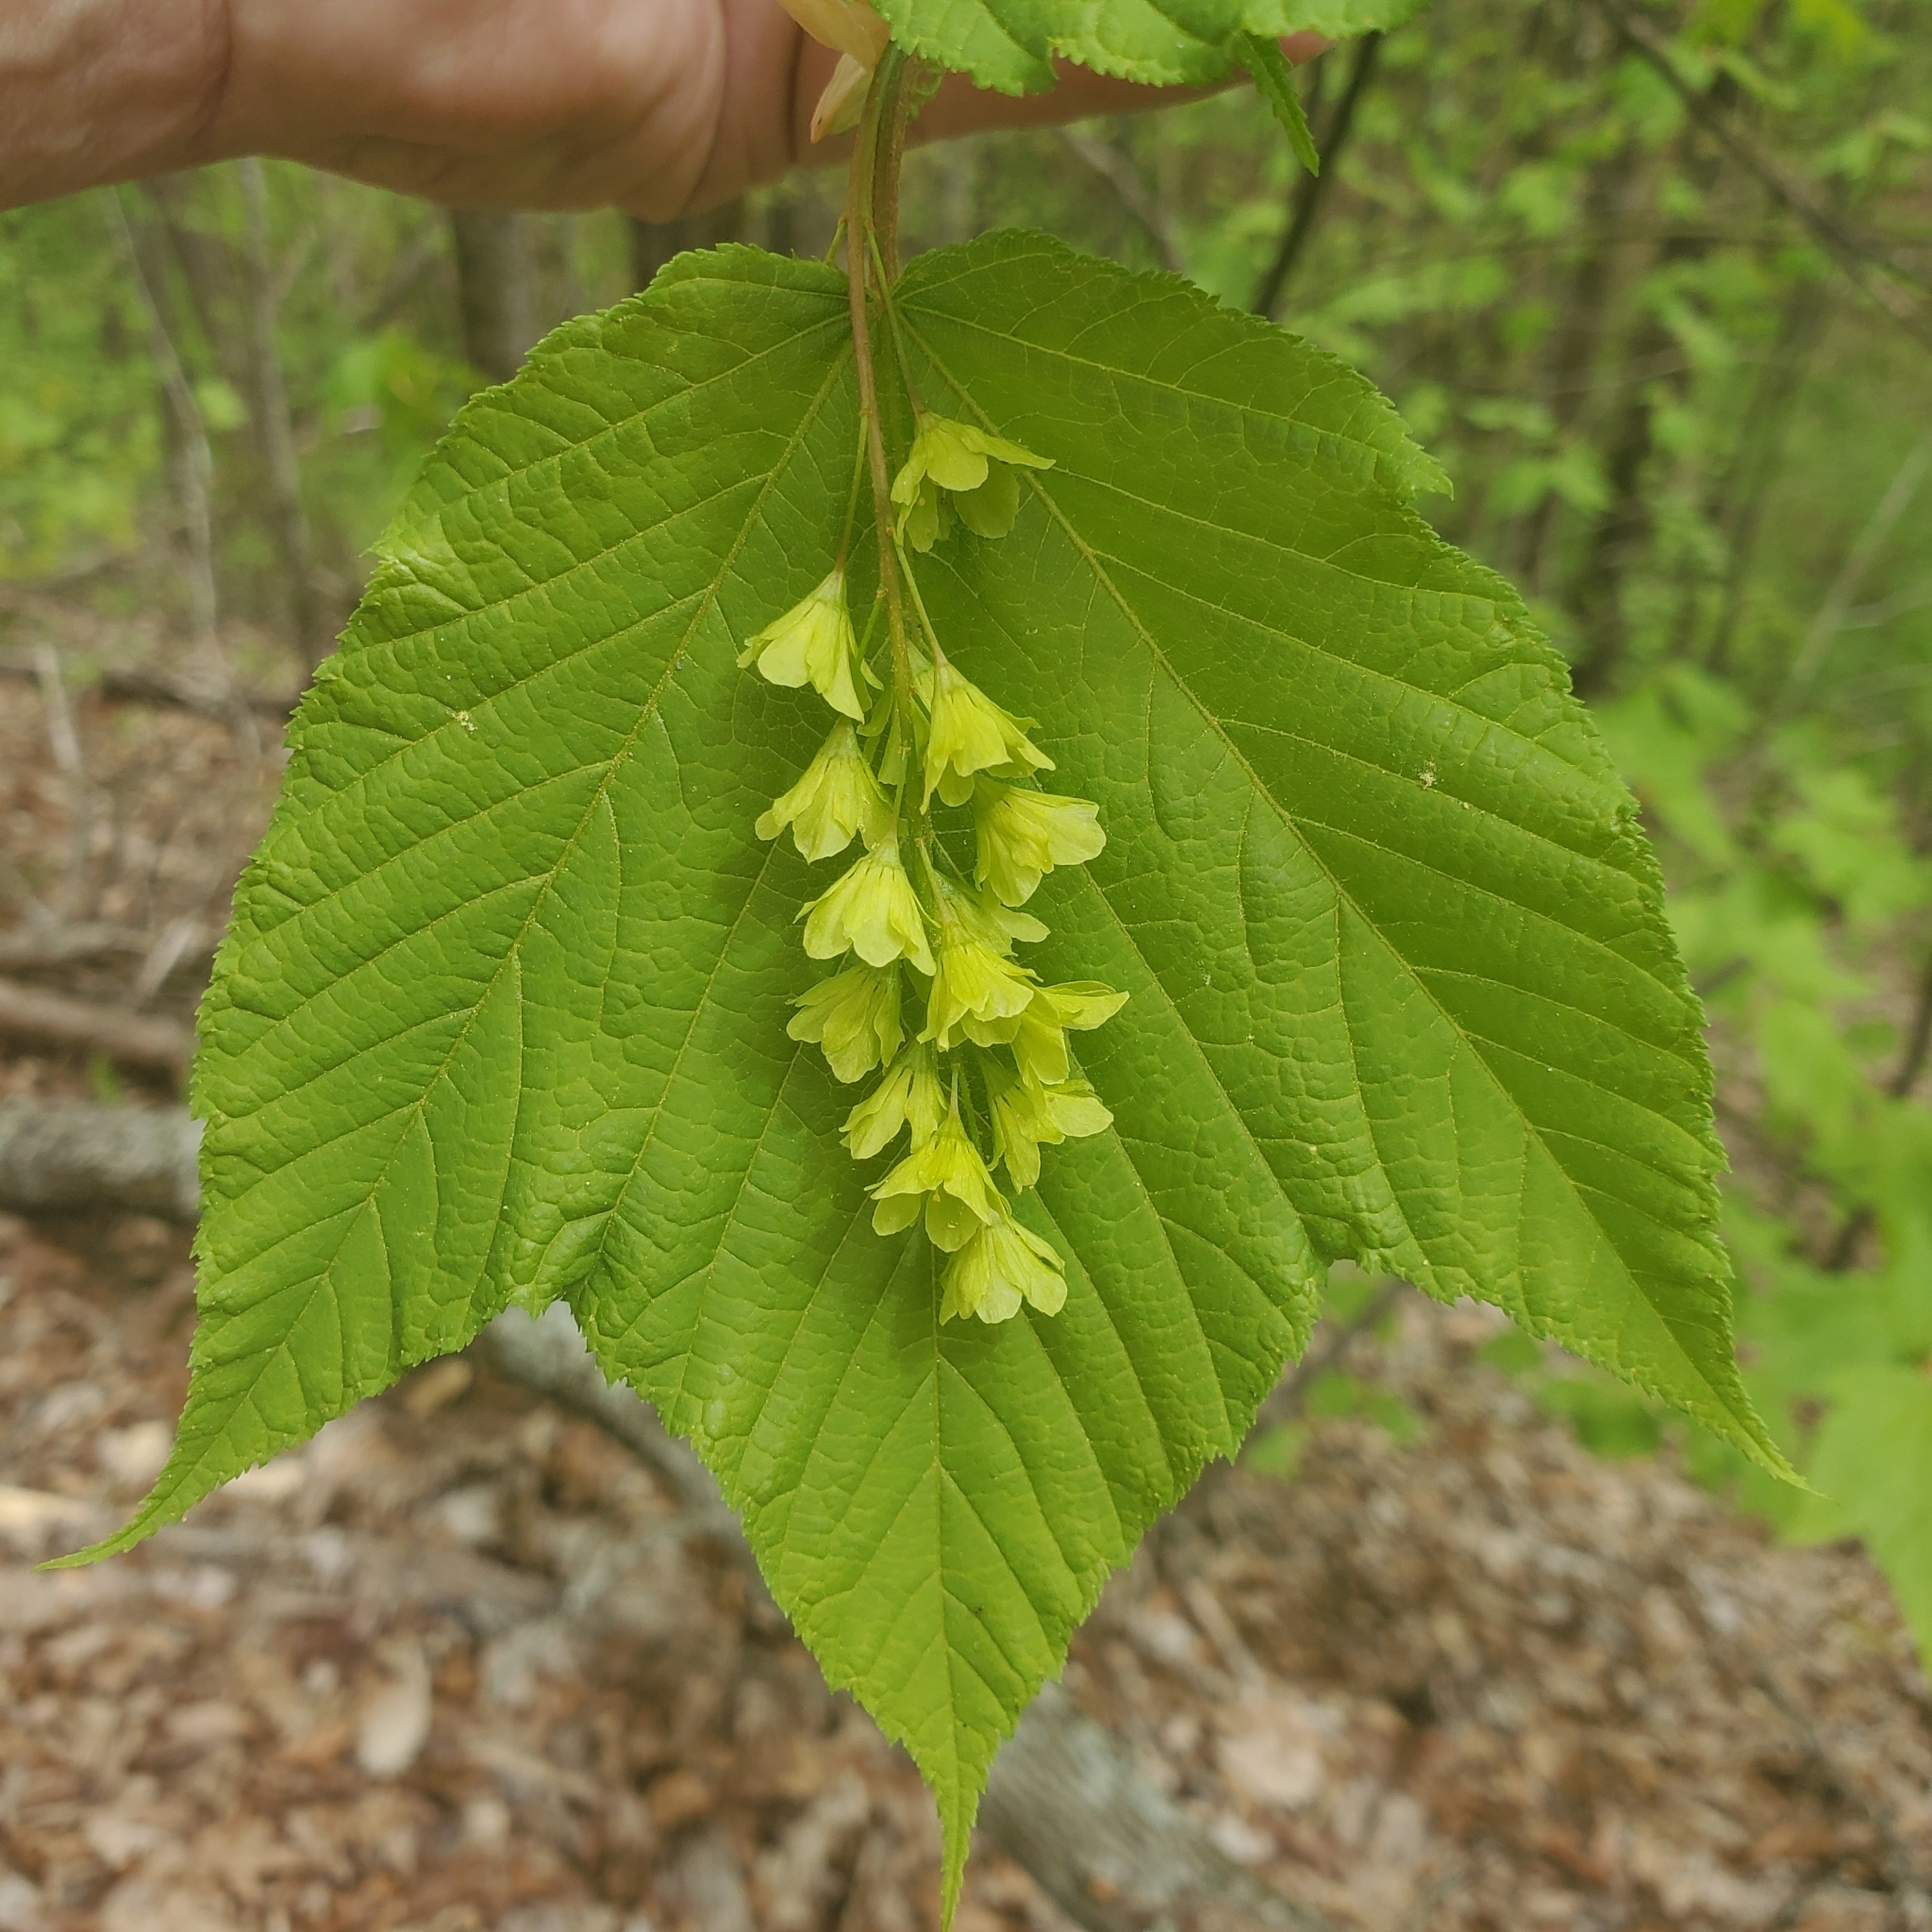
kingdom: Plantae
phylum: Tracheophyta
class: Magnoliopsida
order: Sapindales
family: Sapindaceae
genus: Acer
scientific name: Acer pensylvanicum
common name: Moosewood
